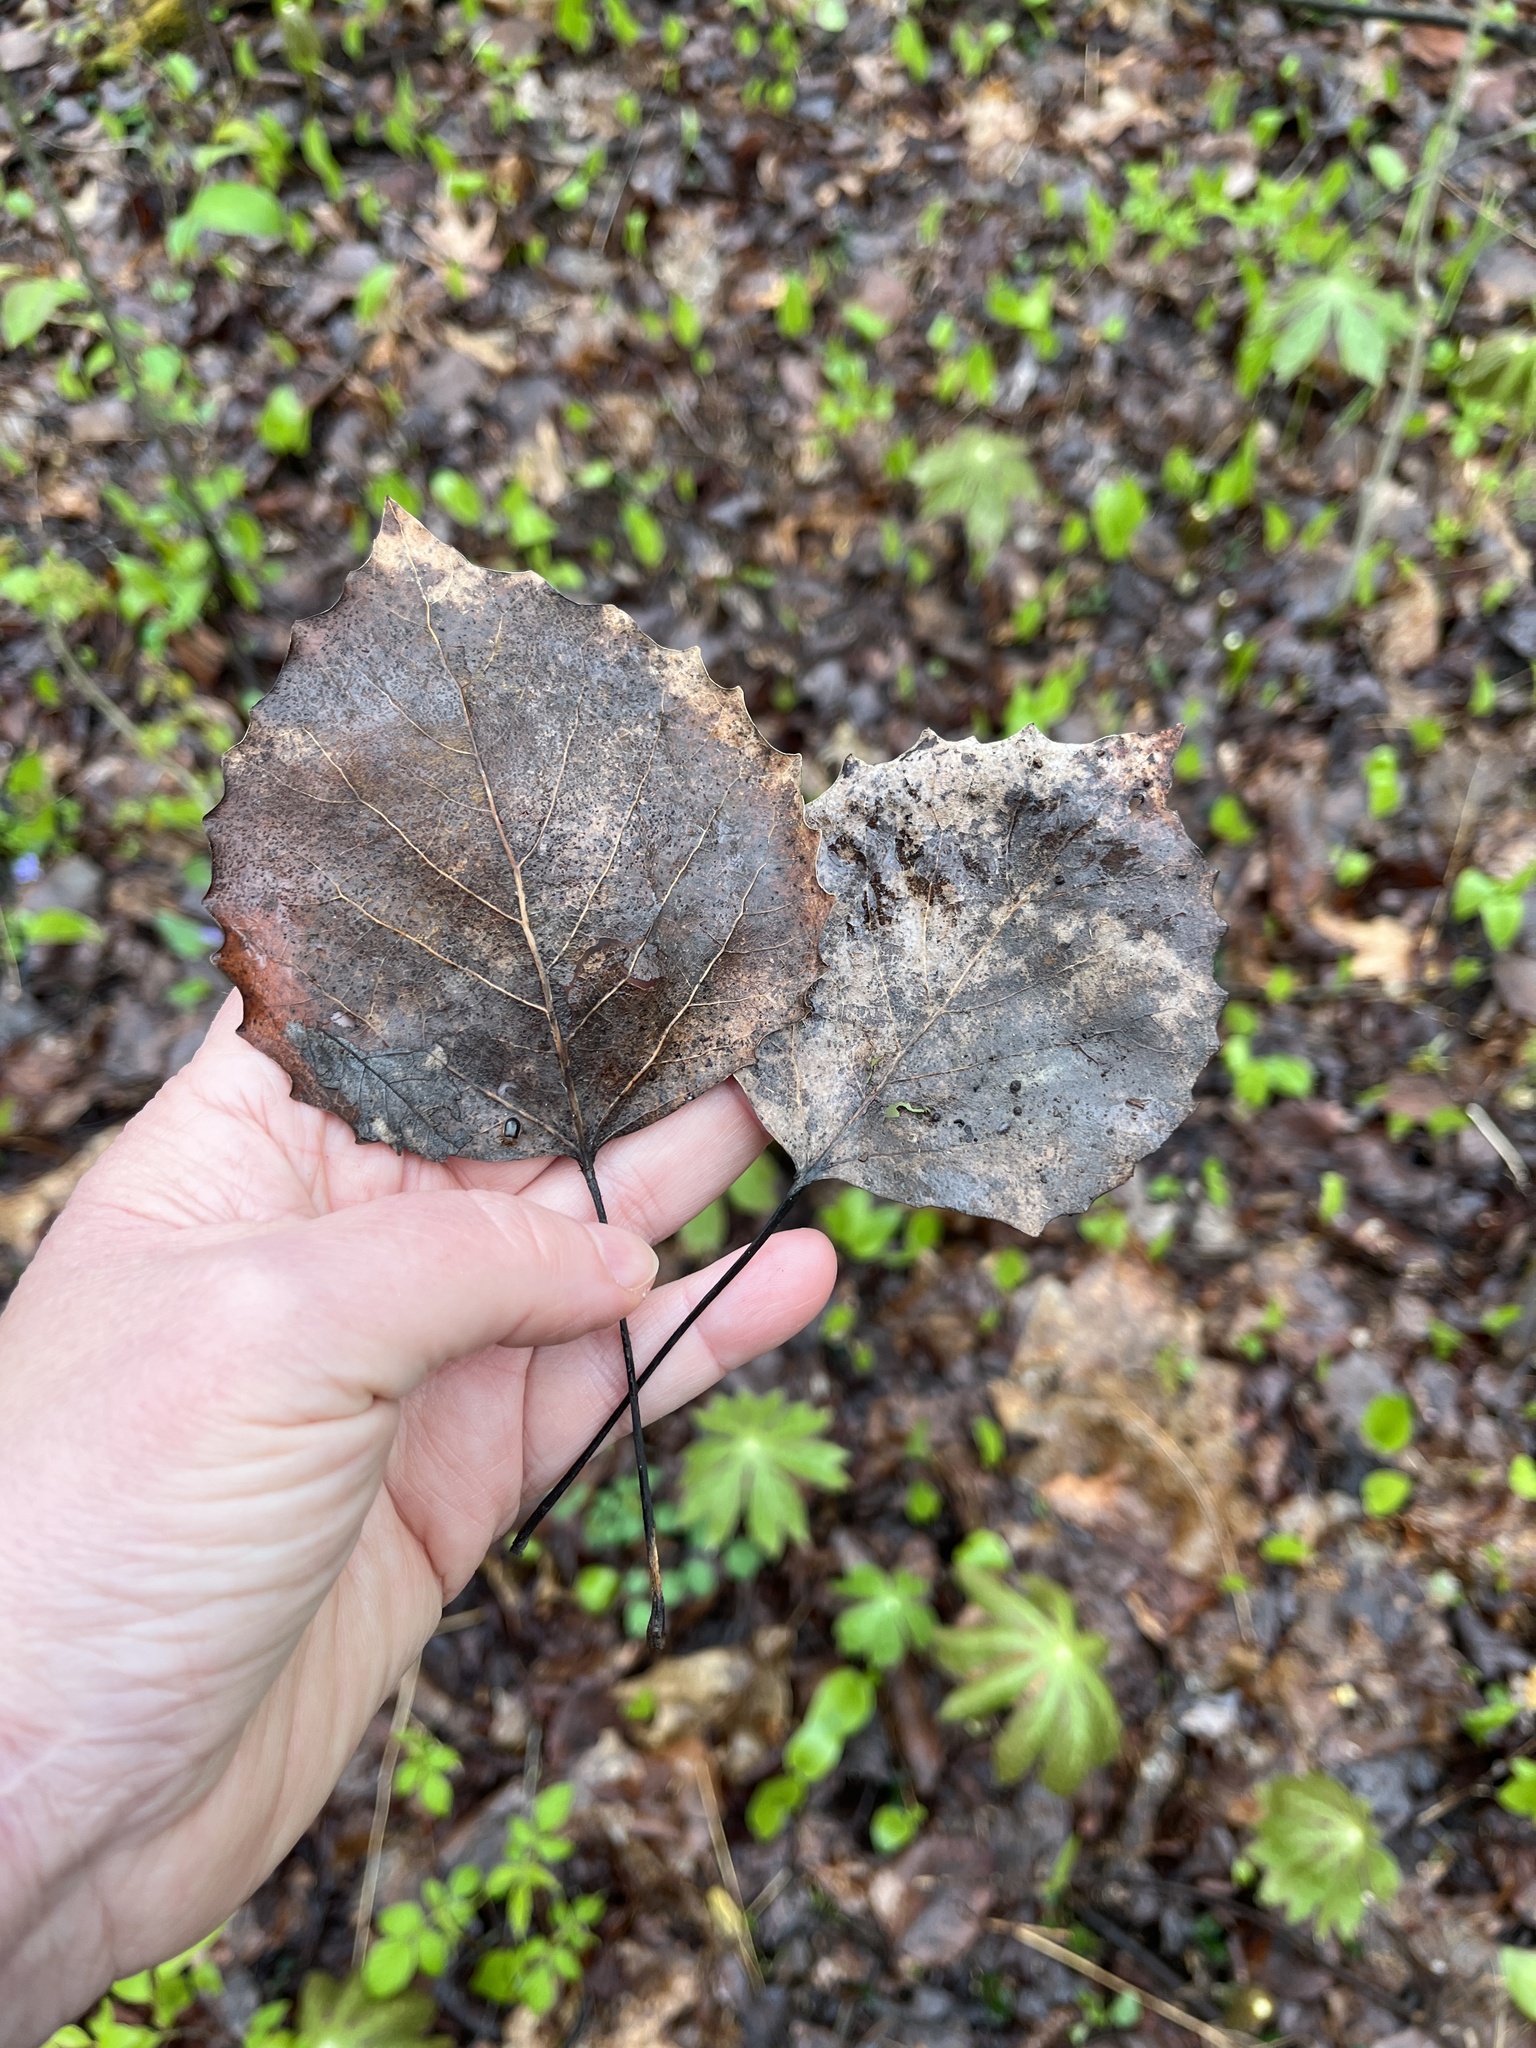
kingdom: Plantae
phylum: Tracheophyta
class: Magnoliopsida
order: Malpighiales
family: Salicaceae
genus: Populus
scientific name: Populus grandidentata
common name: Bigtooth aspen
